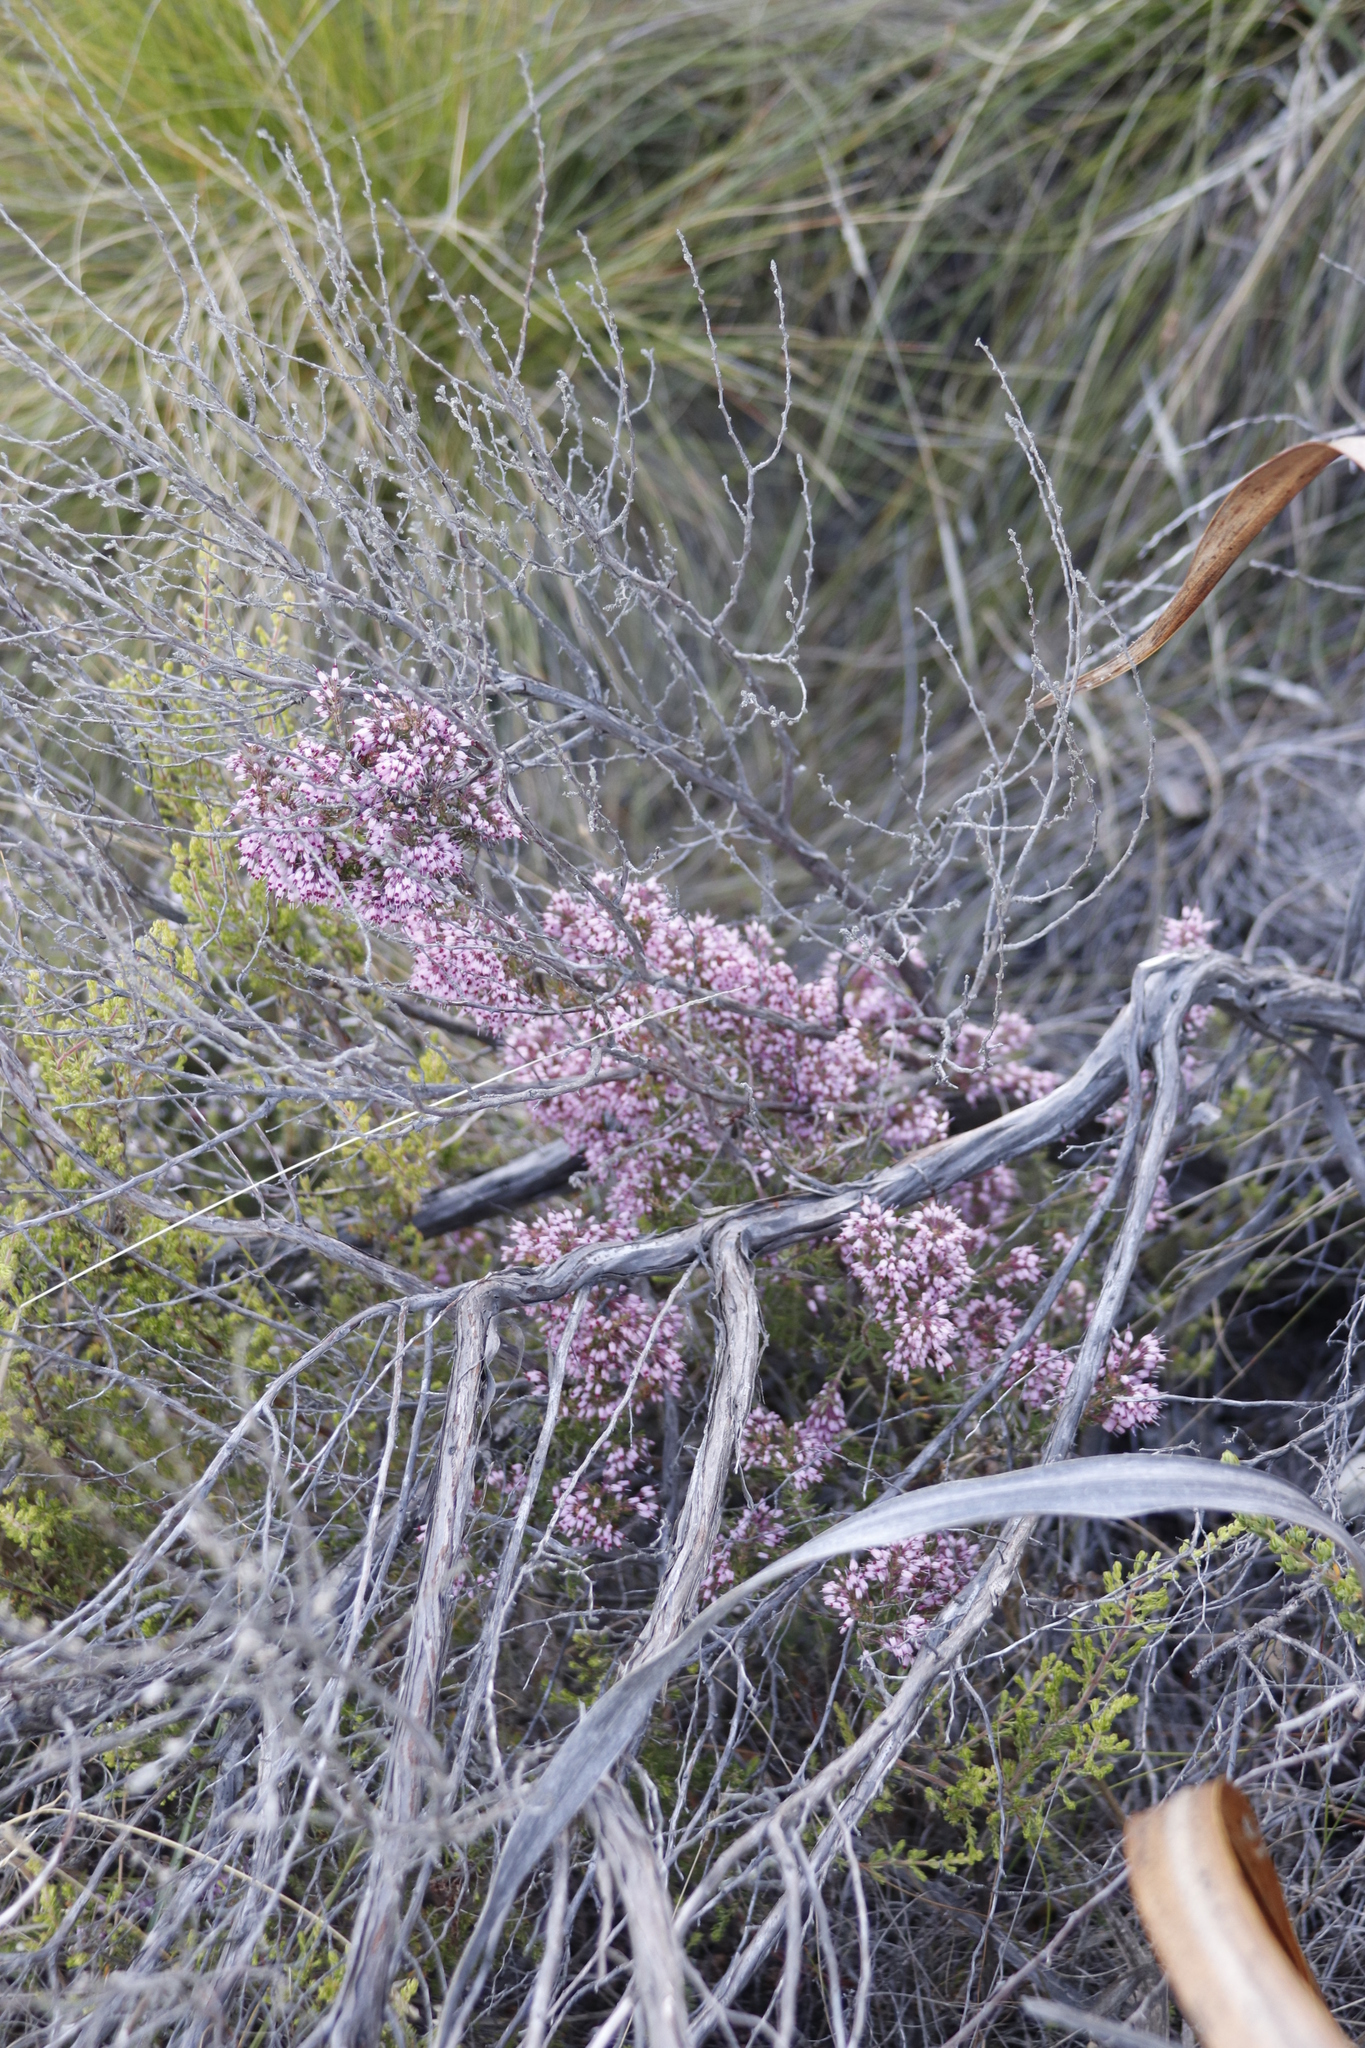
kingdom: Plantae
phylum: Tracheophyta
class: Magnoliopsida
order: Ericales
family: Ericaceae
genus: Erica
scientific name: Erica nudiflora
